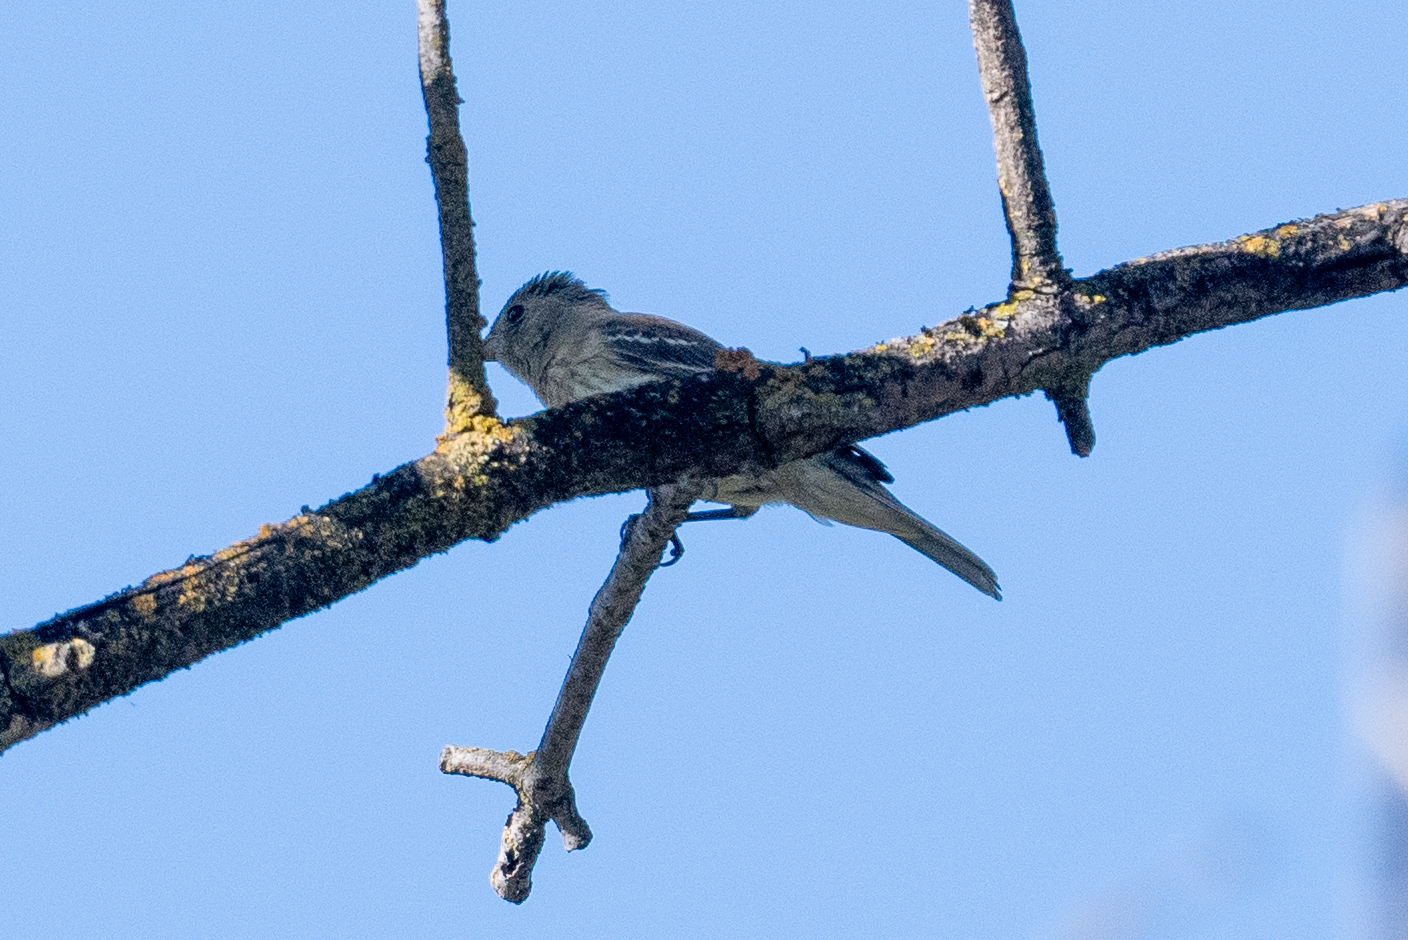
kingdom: Animalia
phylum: Chordata
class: Aves
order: Passeriformes
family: Cardinalidae
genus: Passerina
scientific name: Passerina amoena
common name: Lazuli bunting
